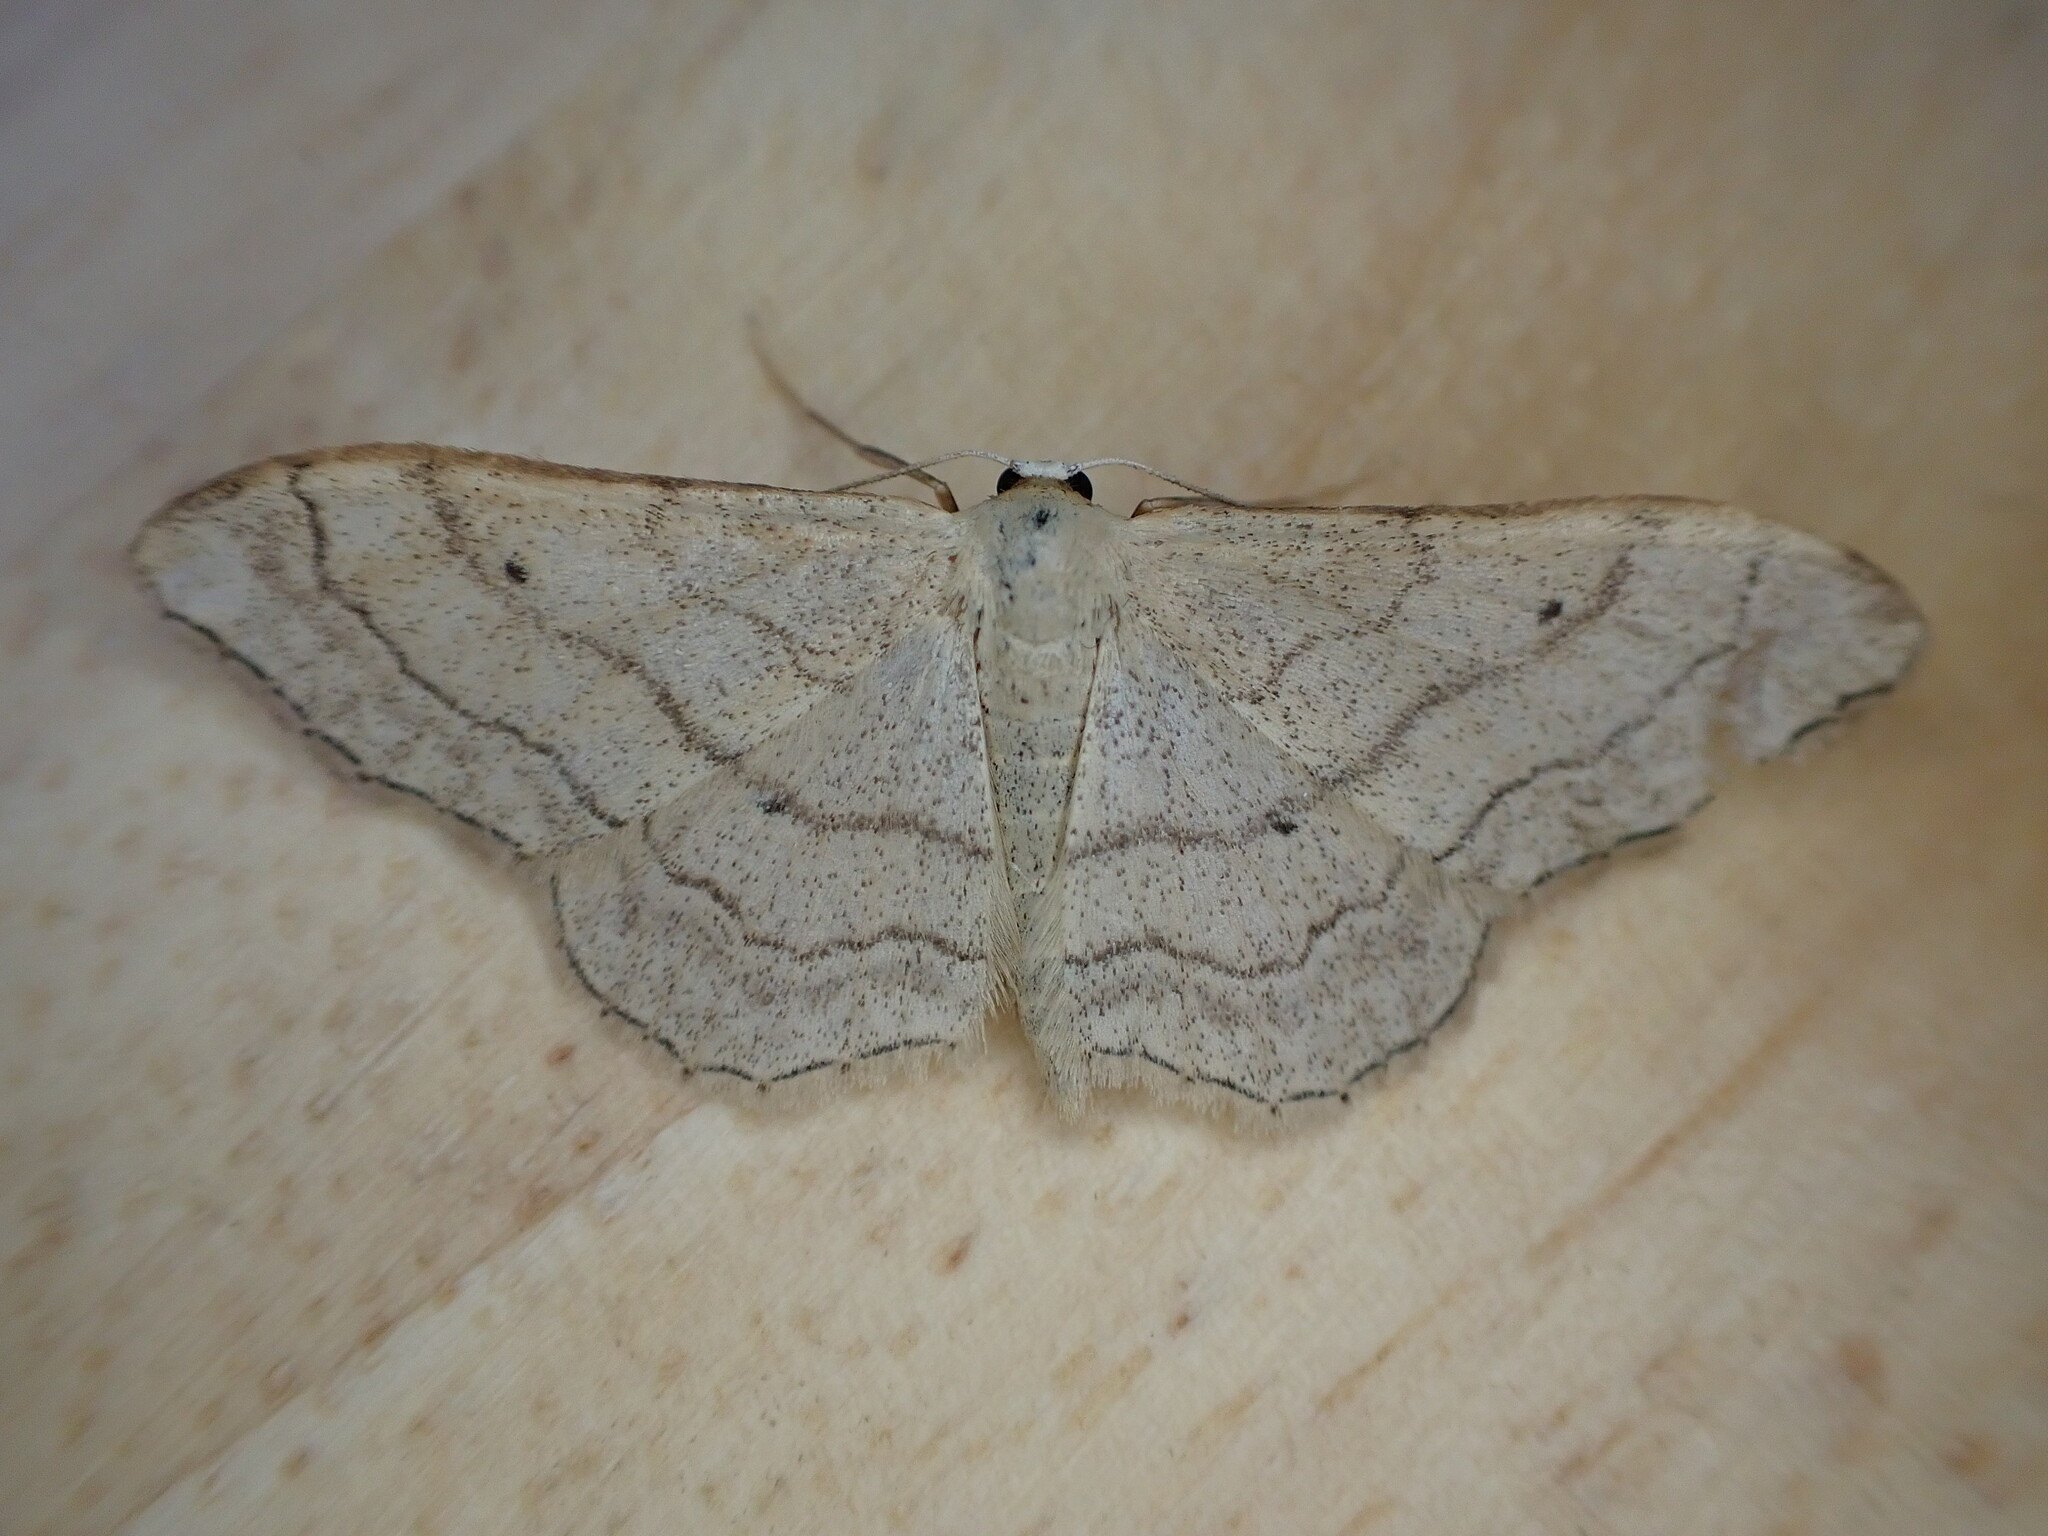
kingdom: Animalia
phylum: Arthropoda
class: Insecta
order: Lepidoptera
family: Geometridae
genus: Idaea
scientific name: Idaea aversata
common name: Riband wave
